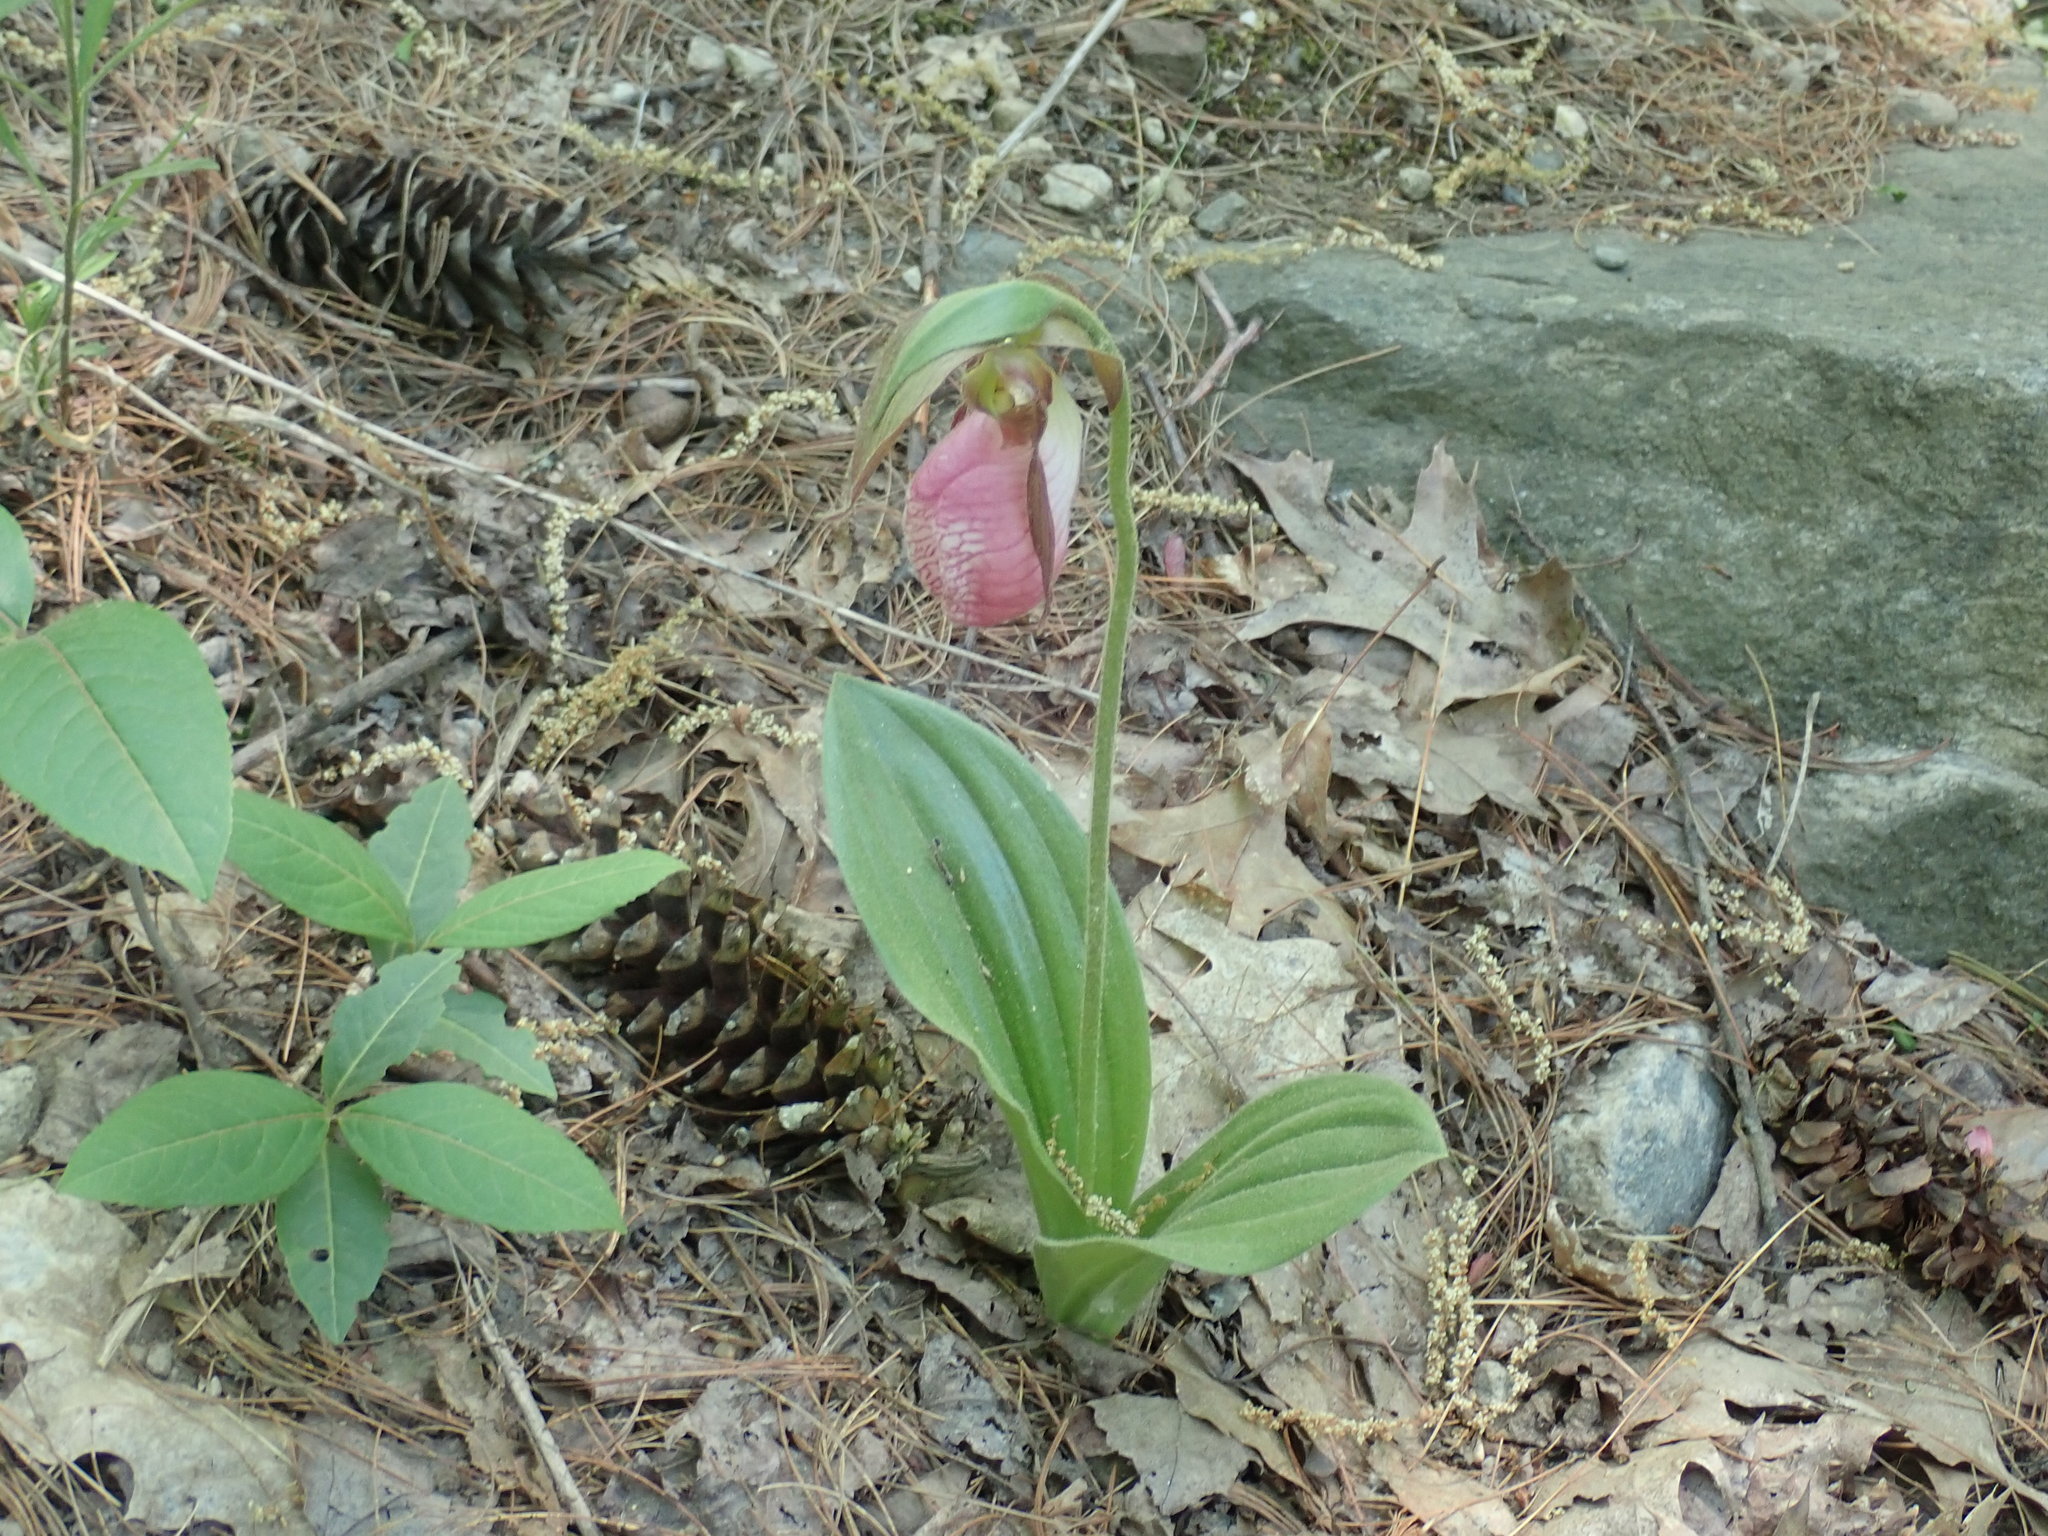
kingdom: Plantae
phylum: Tracheophyta
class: Liliopsida
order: Asparagales
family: Orchidaceae
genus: Cypripedium
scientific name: Cypripedium acaule
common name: Pink lady's-slipper
